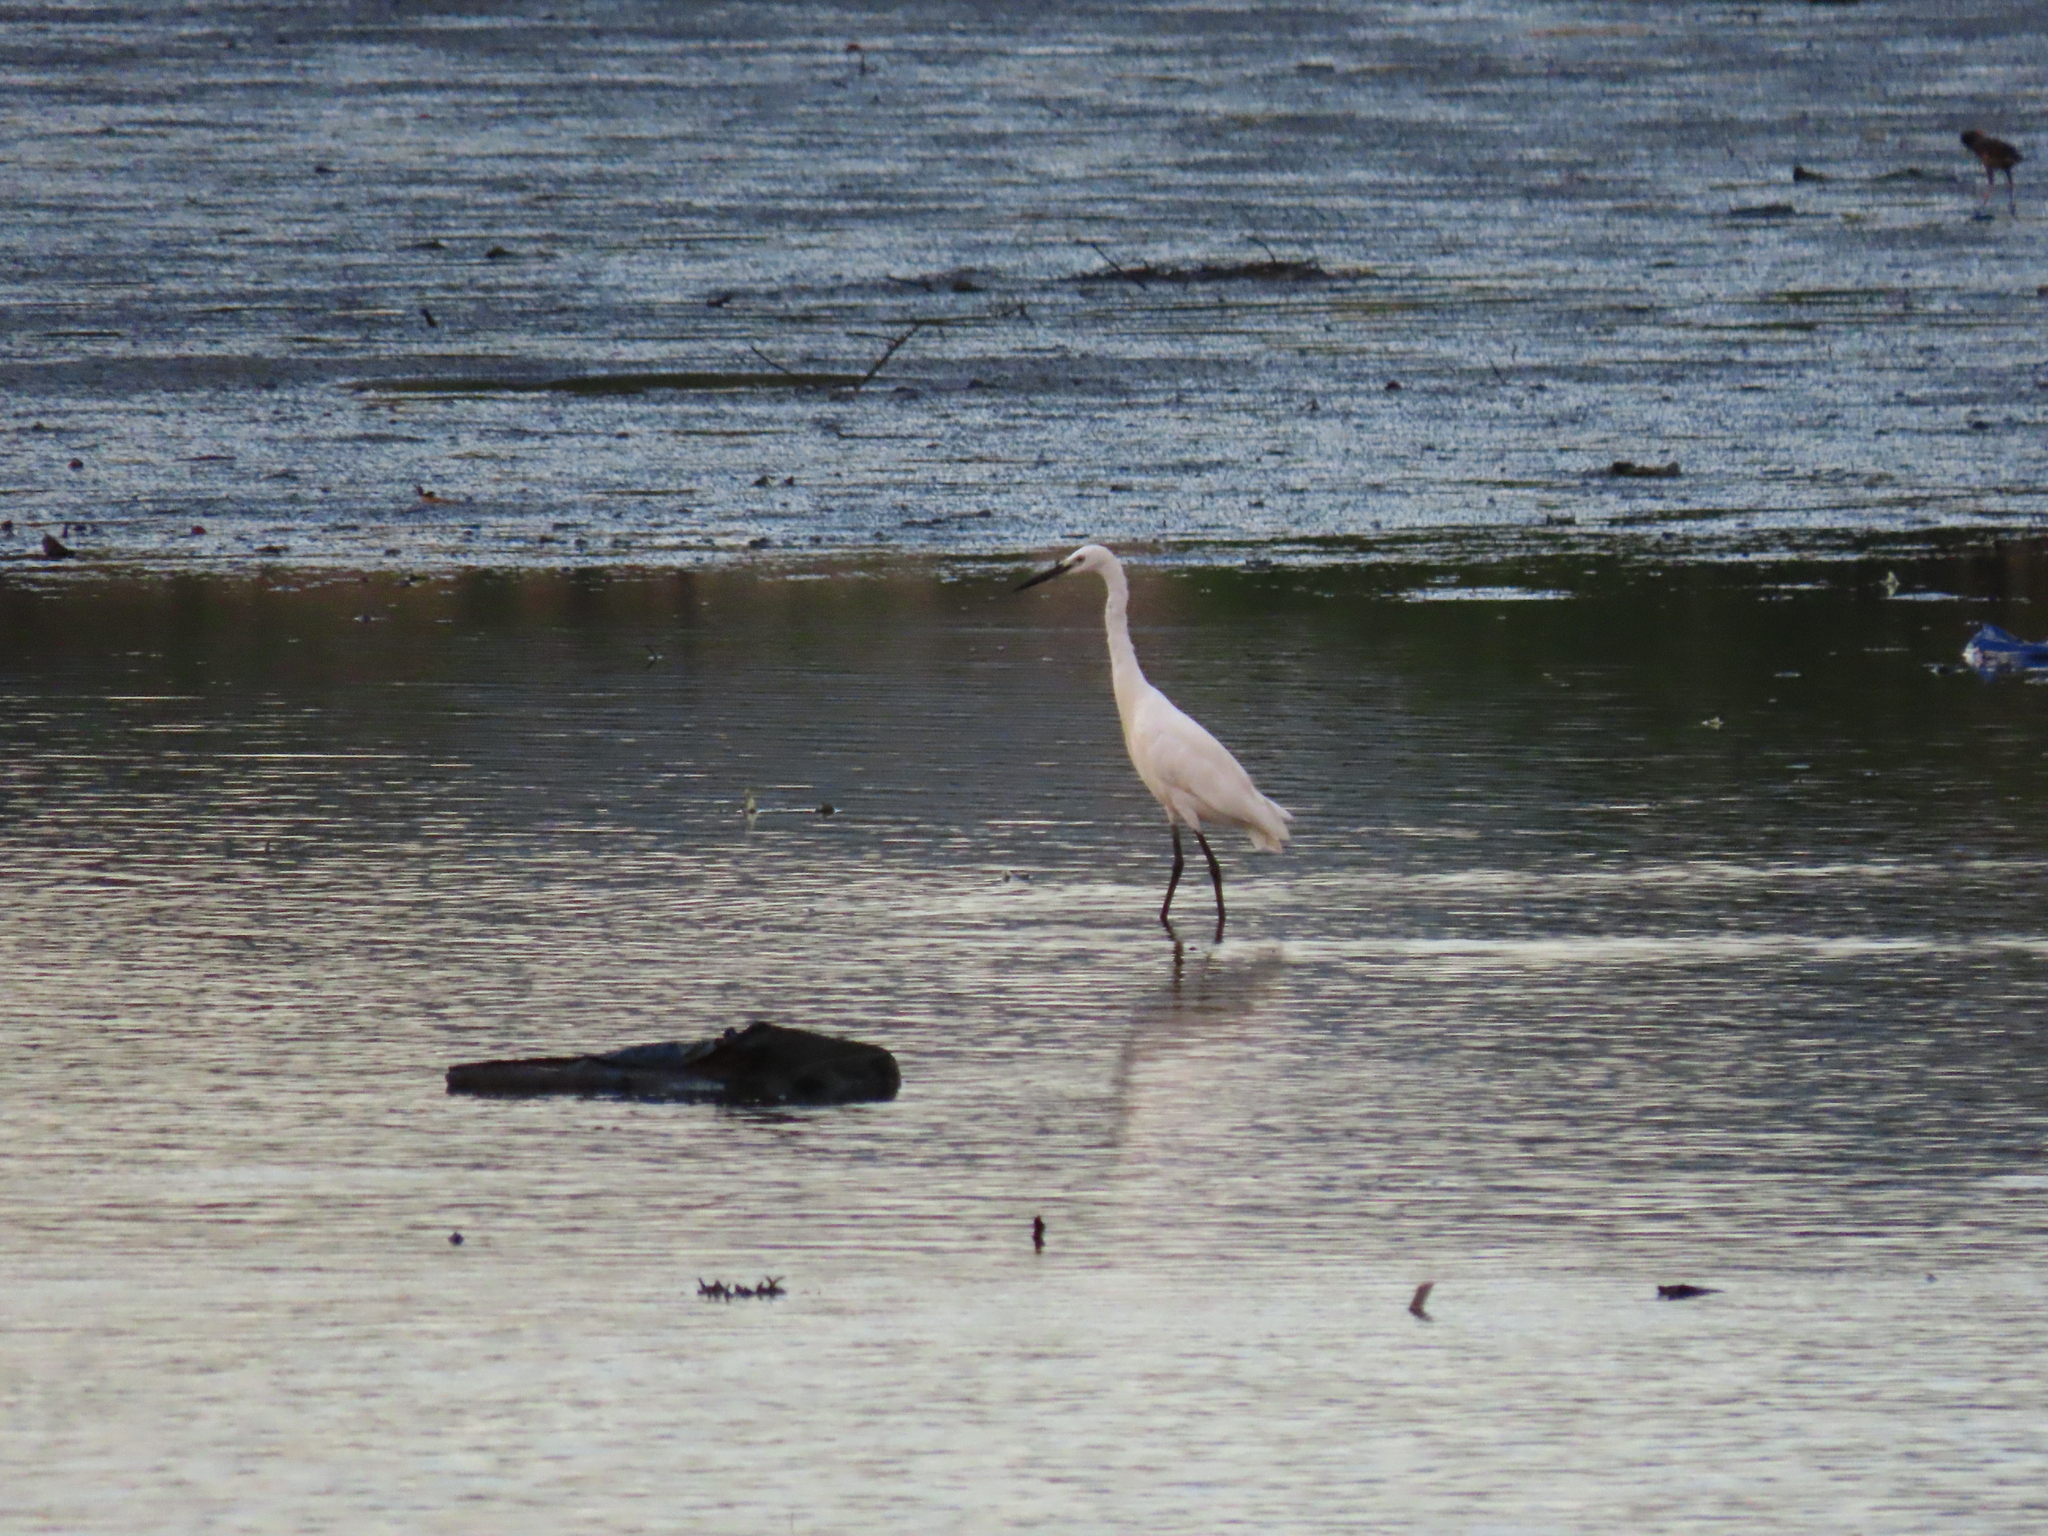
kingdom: Animalia
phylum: Chordata
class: Aves
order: Pelecaniformes
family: Ardeidae
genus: Egretta
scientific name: Egretta garzetta
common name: Little egret
